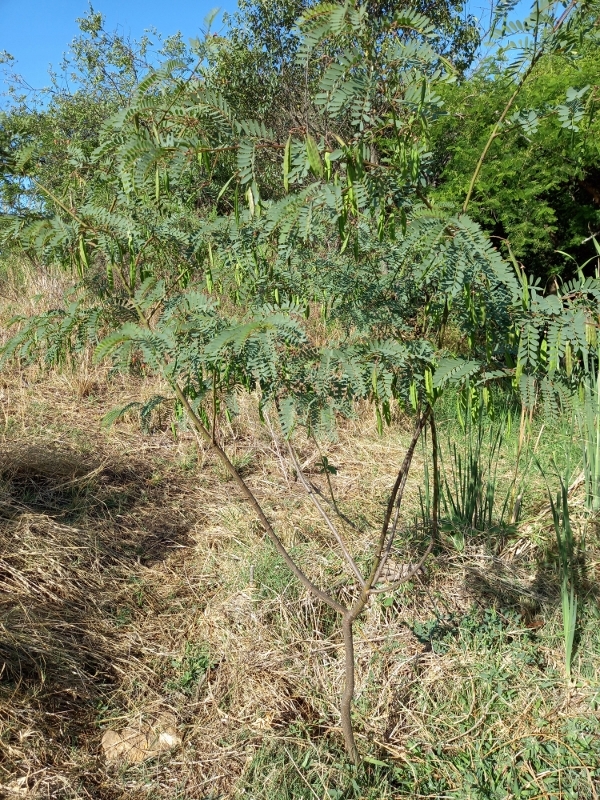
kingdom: Plantae
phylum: Tracheophyta
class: Magnoliopsida
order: Fabales
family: Fabaceae
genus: Sesbania
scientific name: Sesbania punicea
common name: Rattlebox
